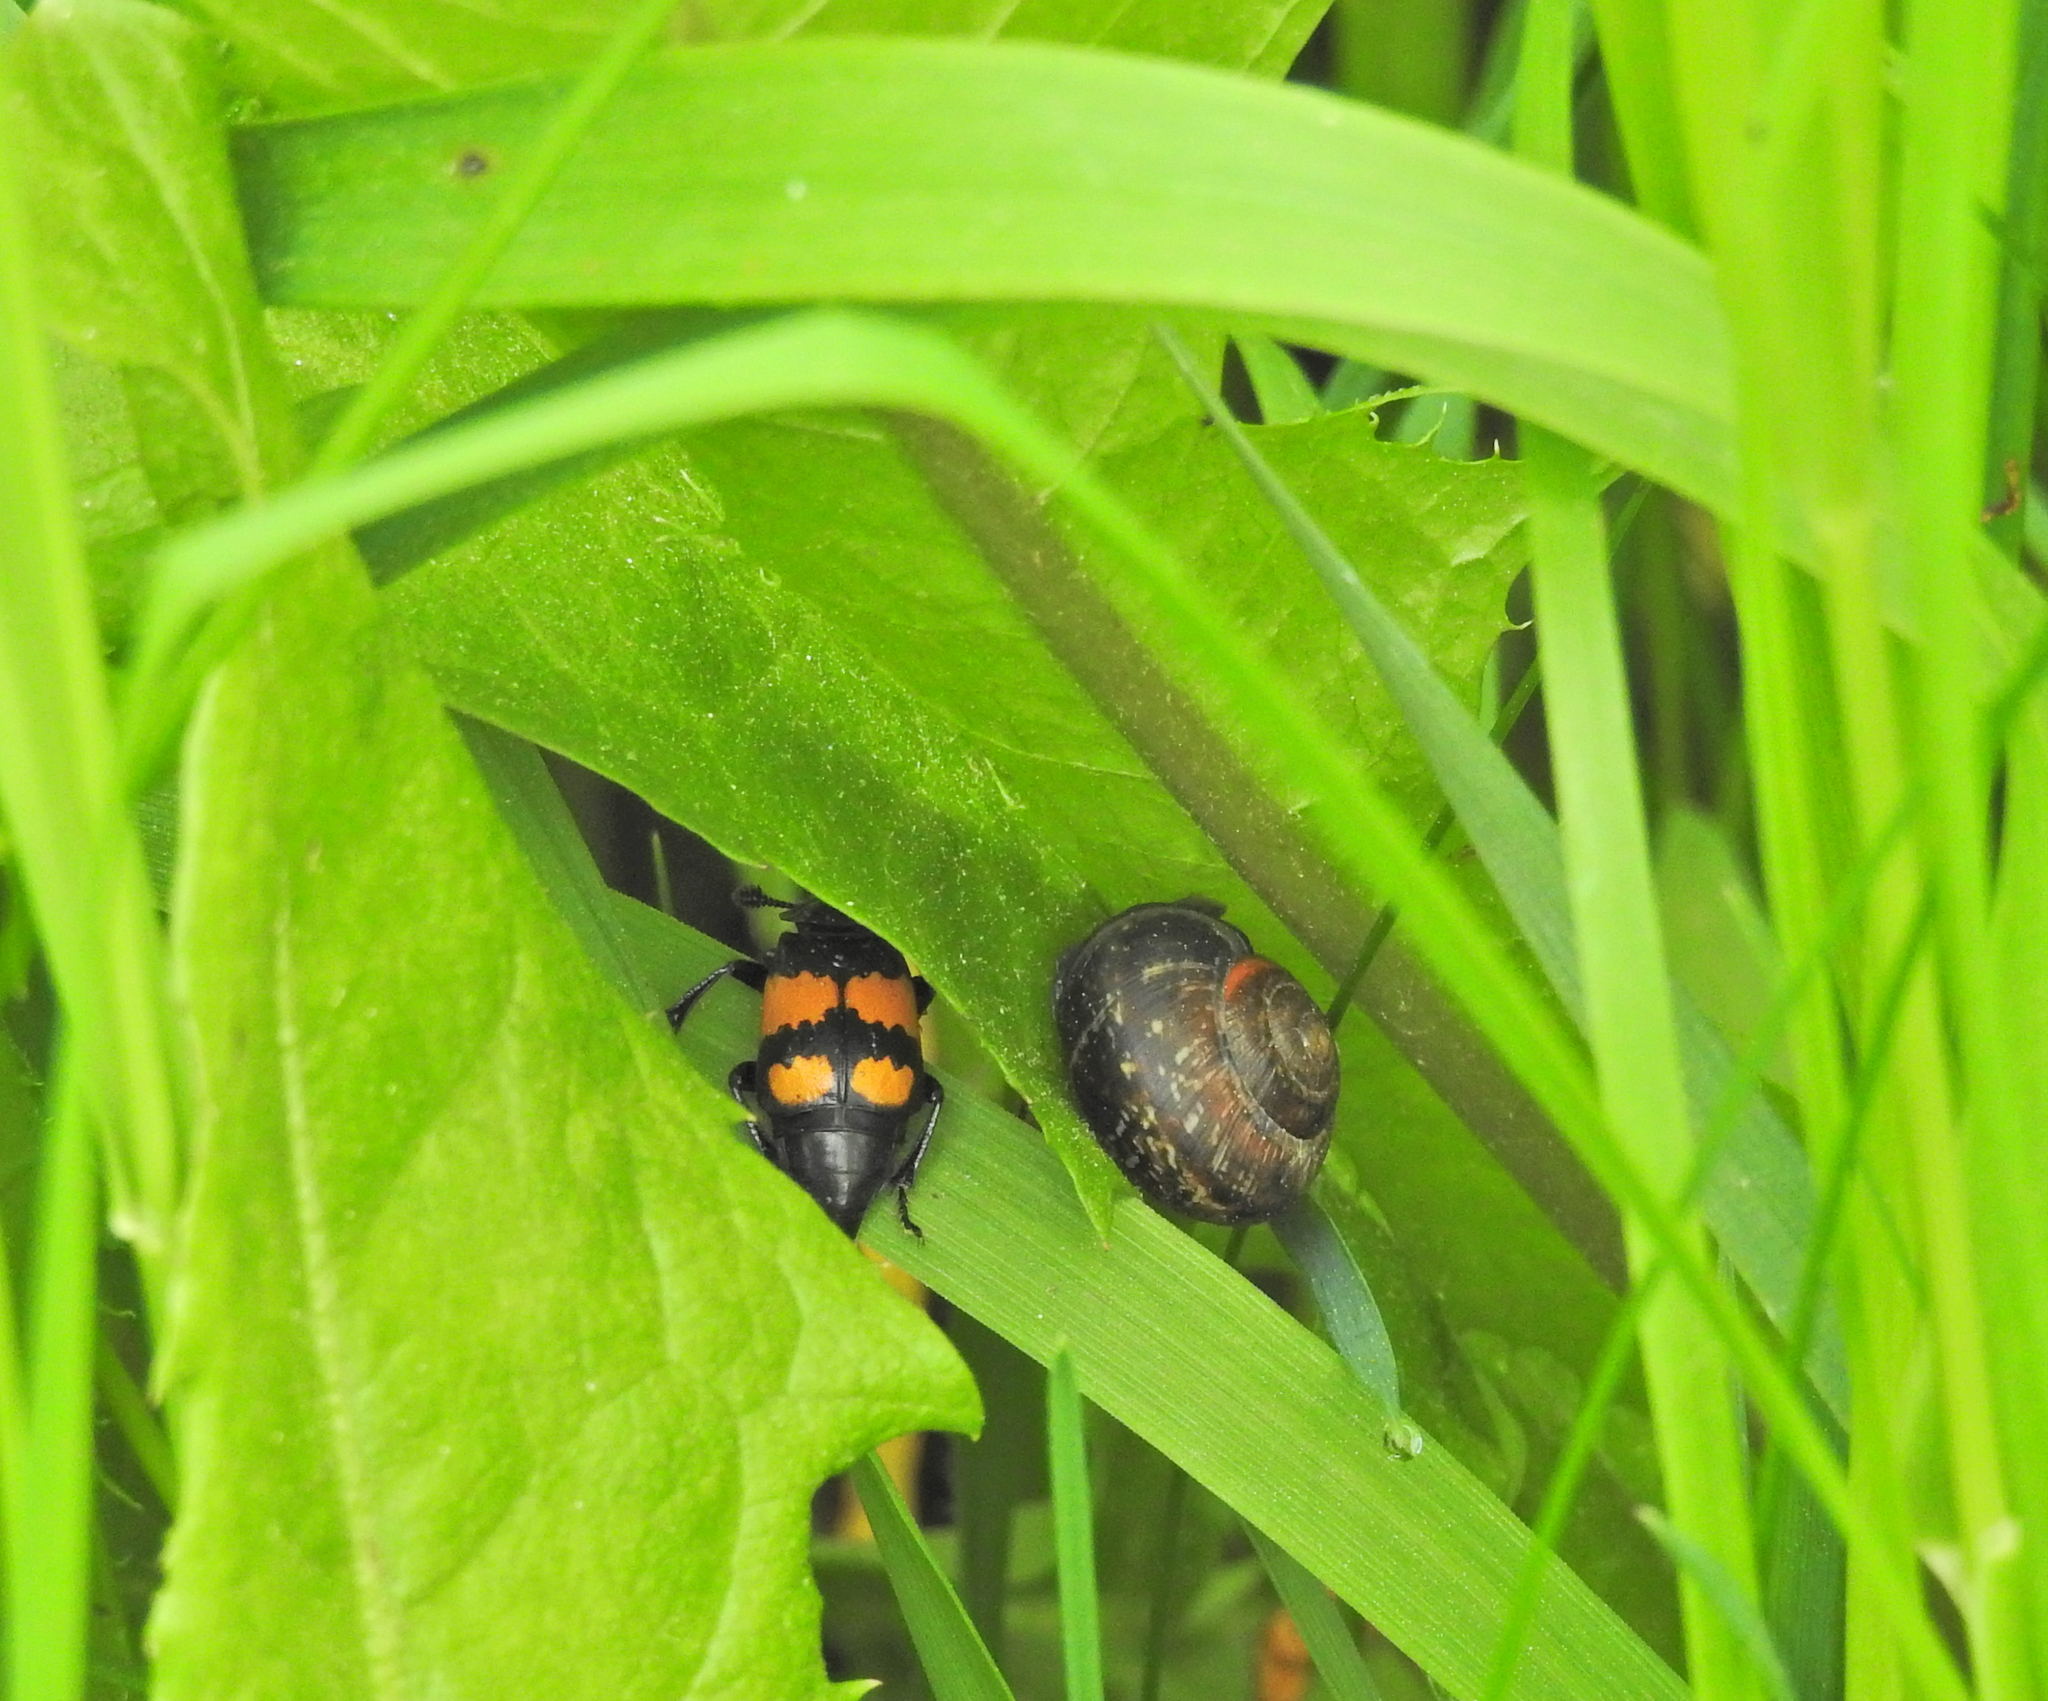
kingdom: Animalia
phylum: Arthropoda
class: Insecta
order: Coleoptera
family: Staphylinidae
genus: Nicrophorus
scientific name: Nicrophorus vespilloides
